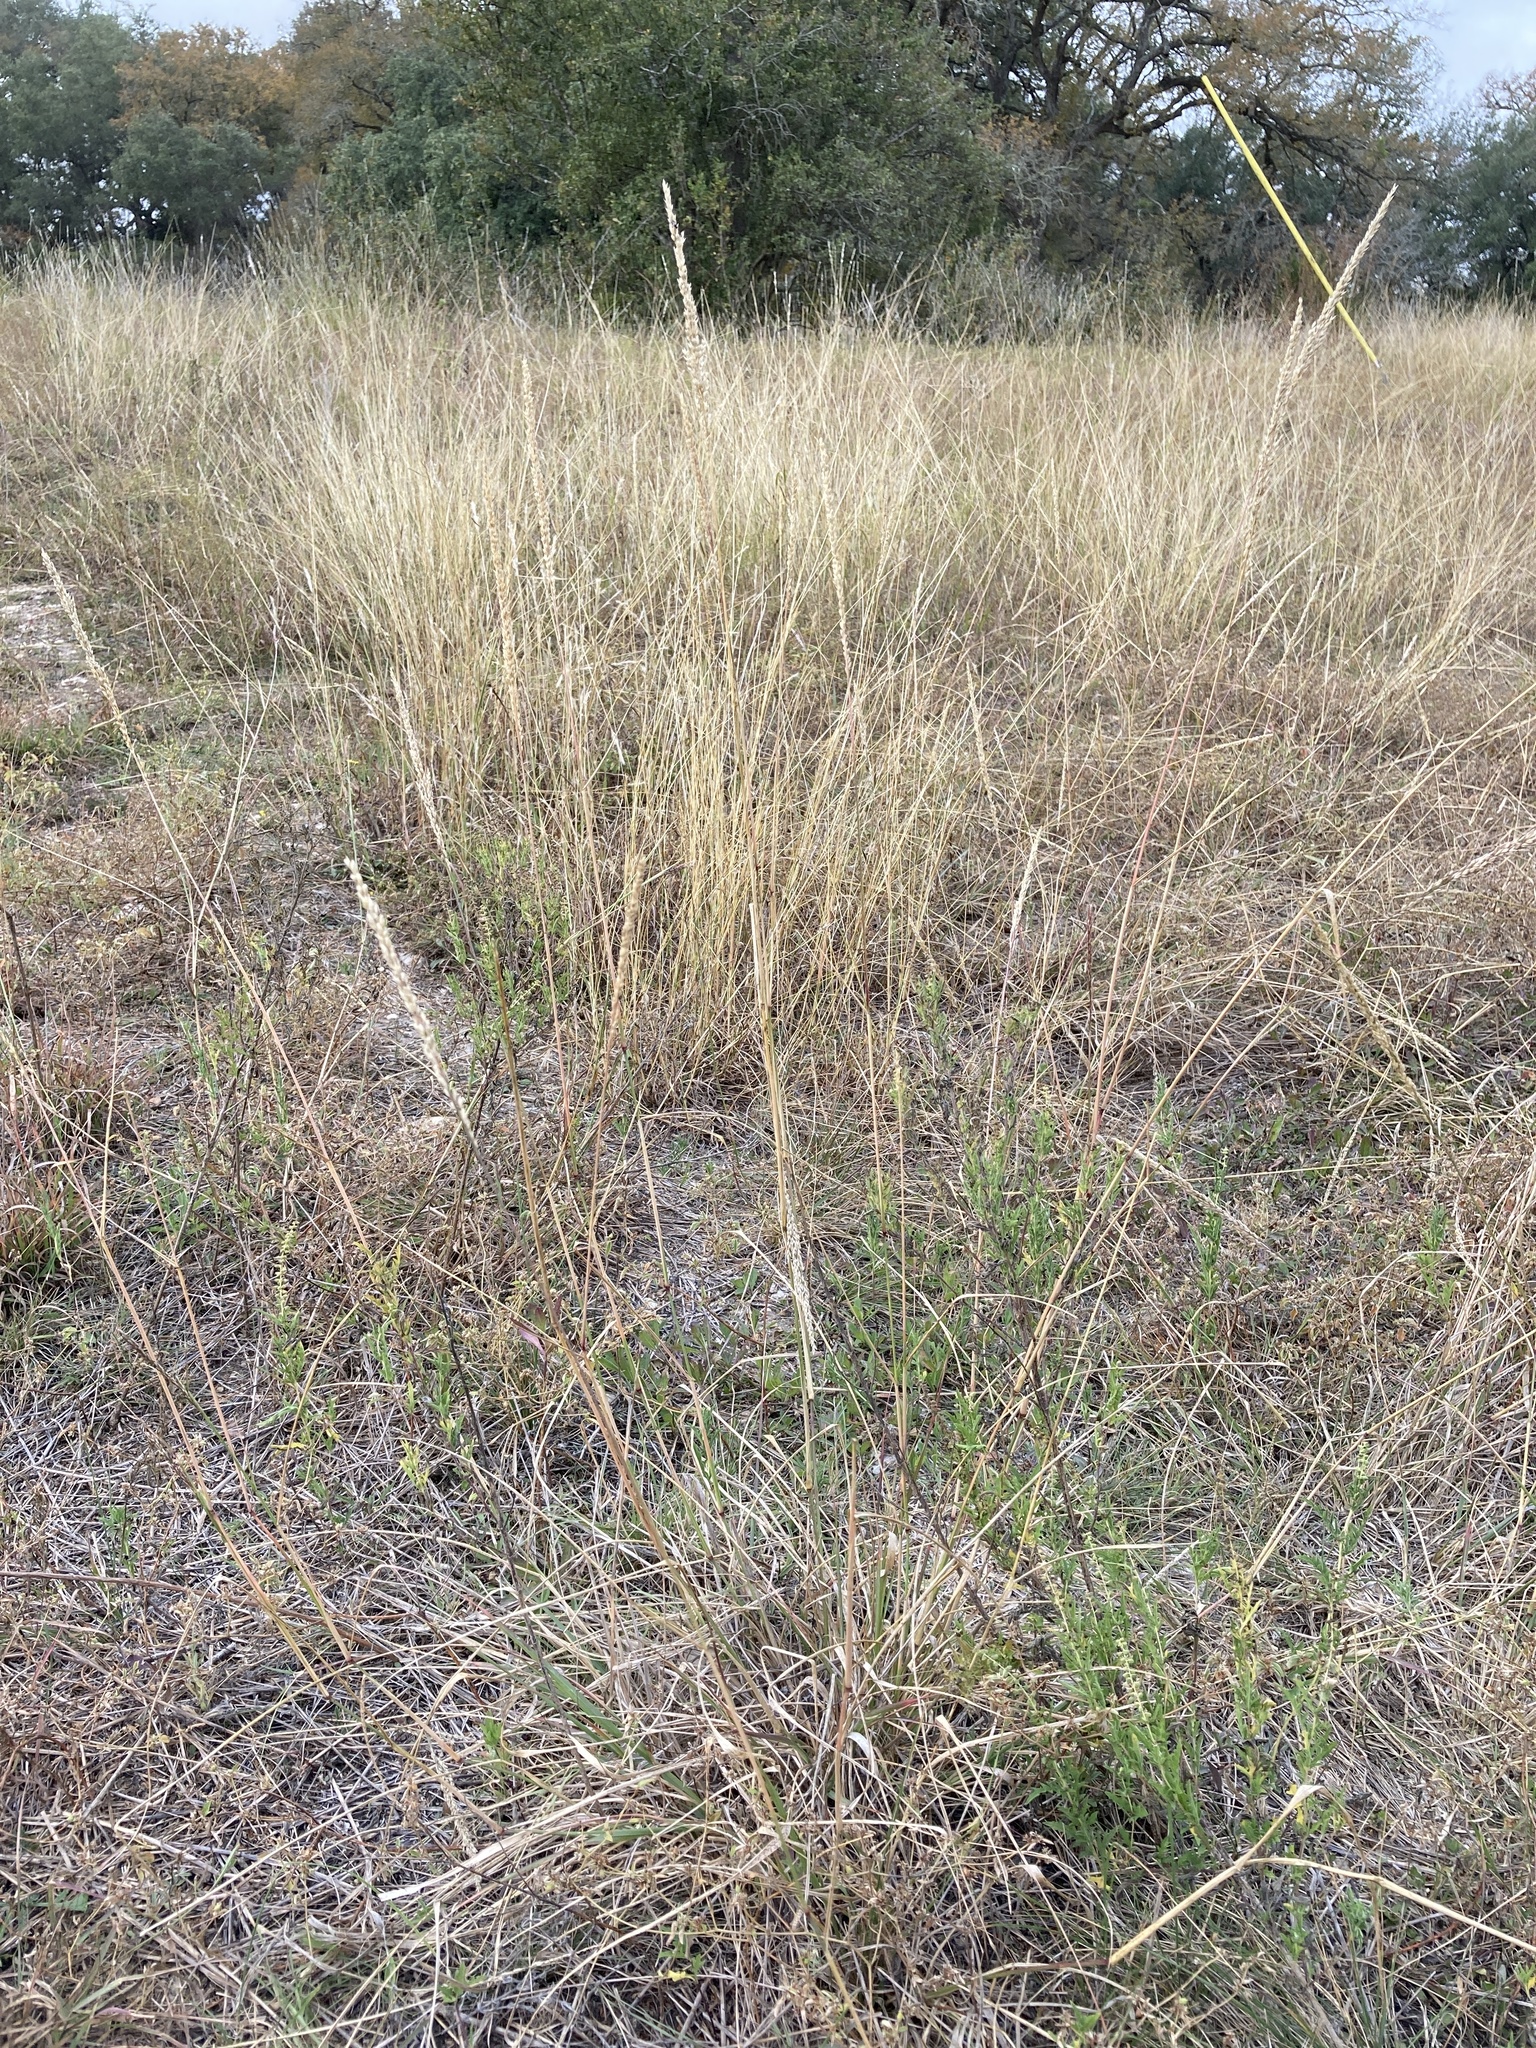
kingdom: Plantae
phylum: Tracheophyta
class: Liliopsida
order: Poales
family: Poaceae
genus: Tridens
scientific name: Tridens albescens
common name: White tridens
